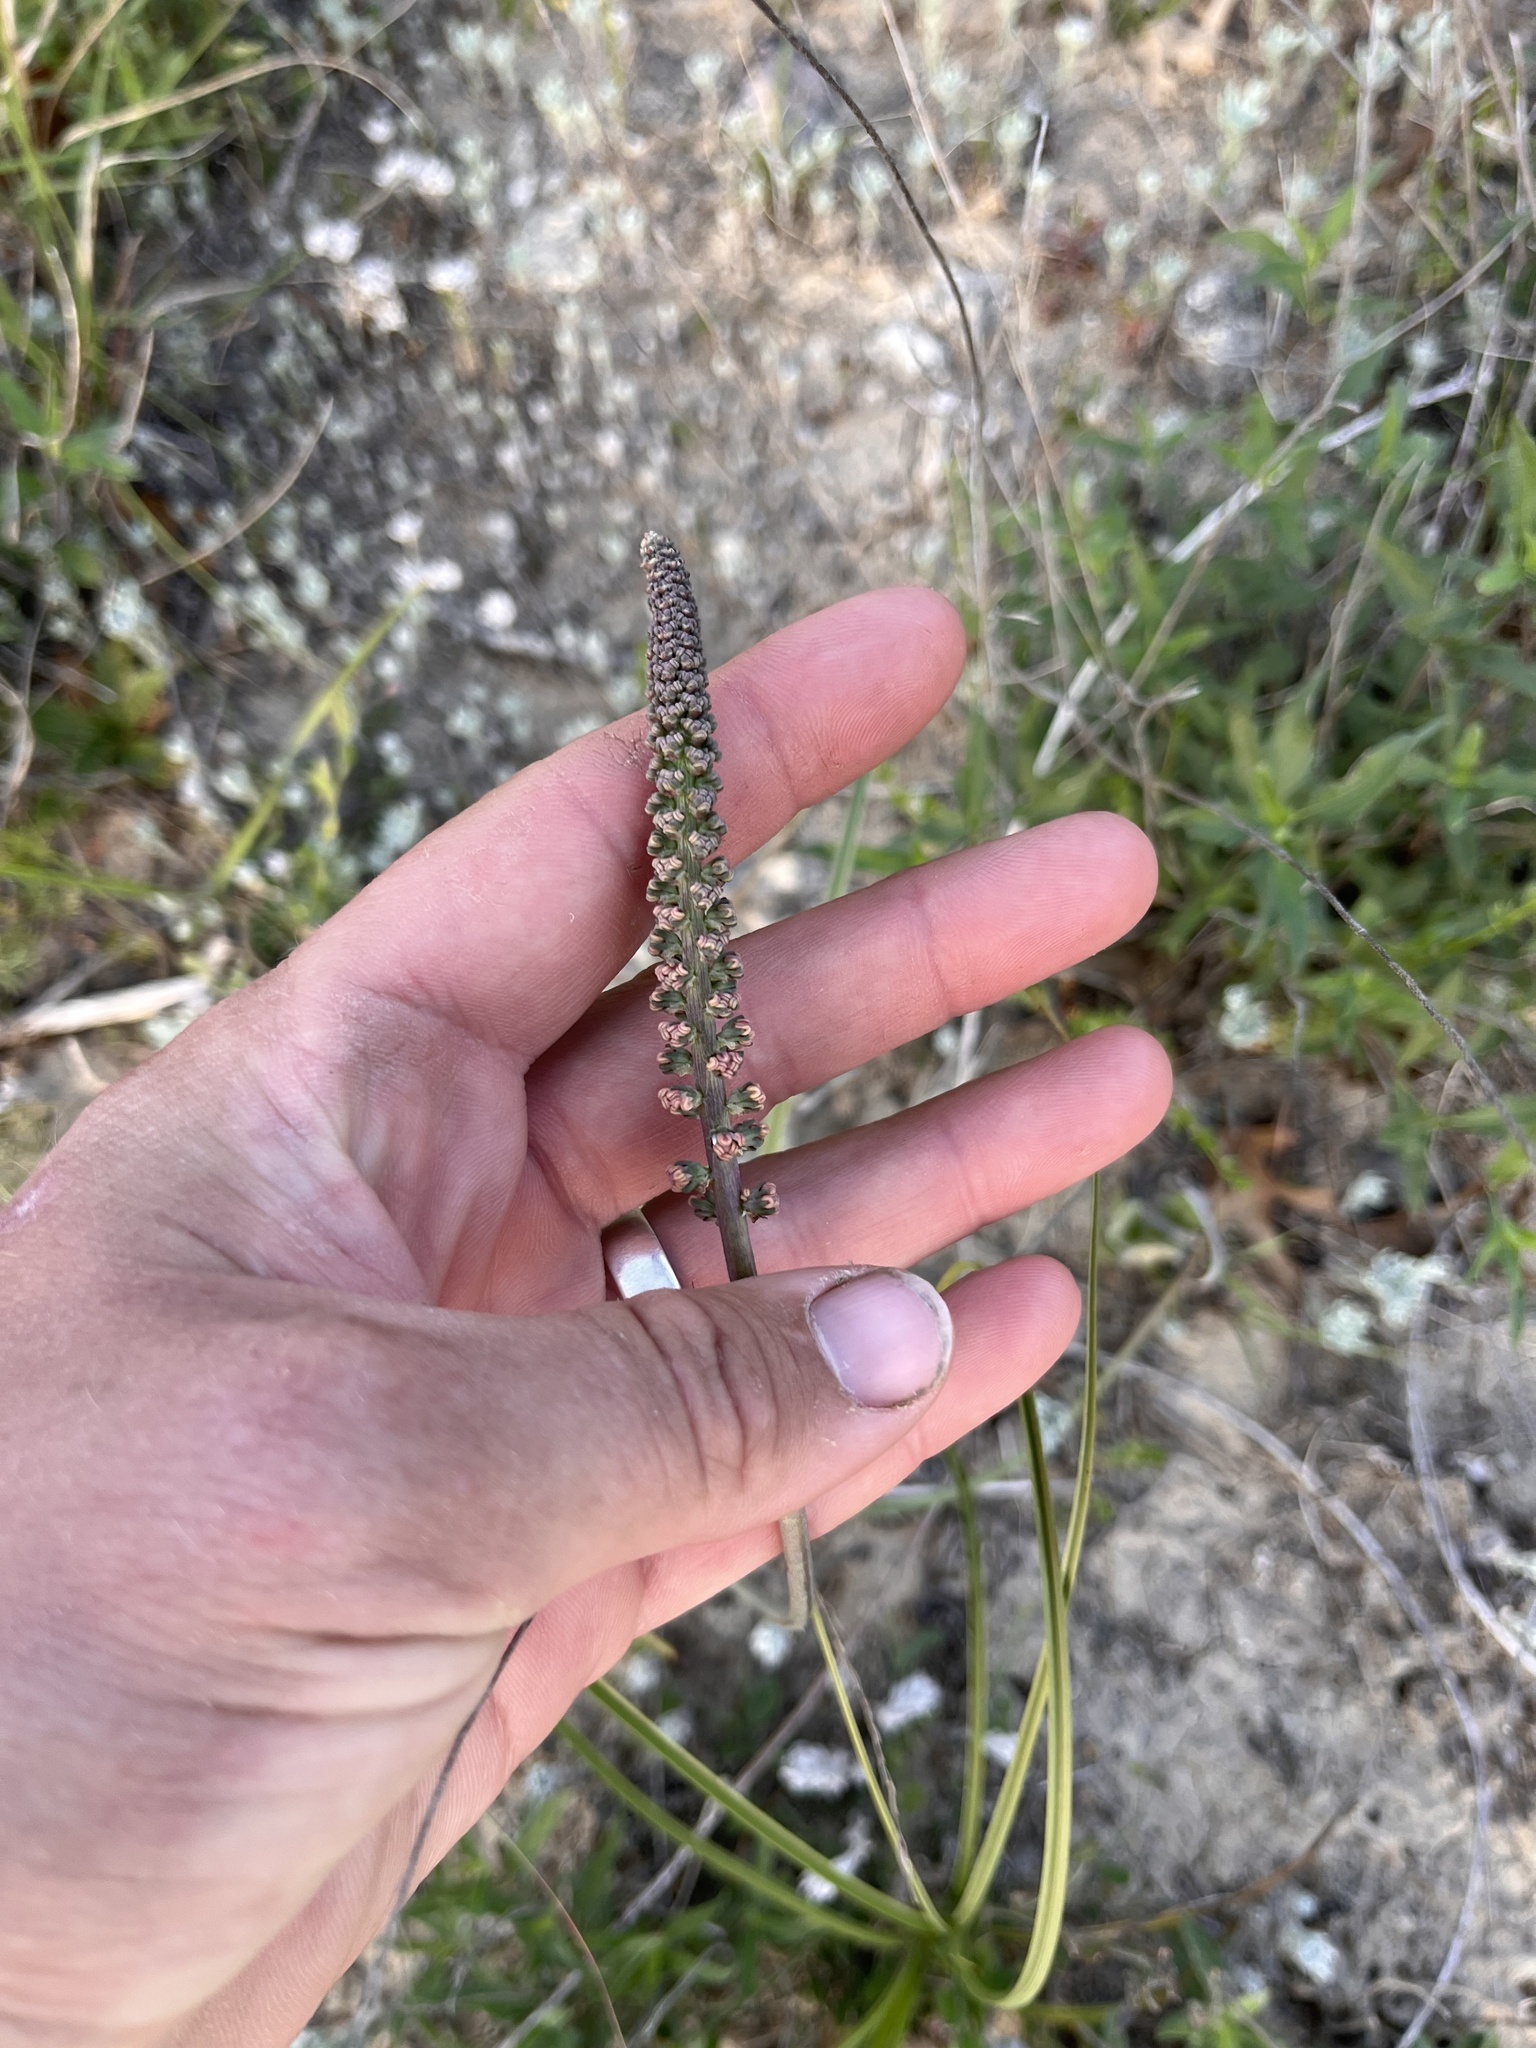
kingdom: Plantae
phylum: Tracheophyta
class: Liliopsida
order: Liliales
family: Melanthiaceae
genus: Schoenocaulon
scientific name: Schoenocaulon texanum
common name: Texas feather-shank
